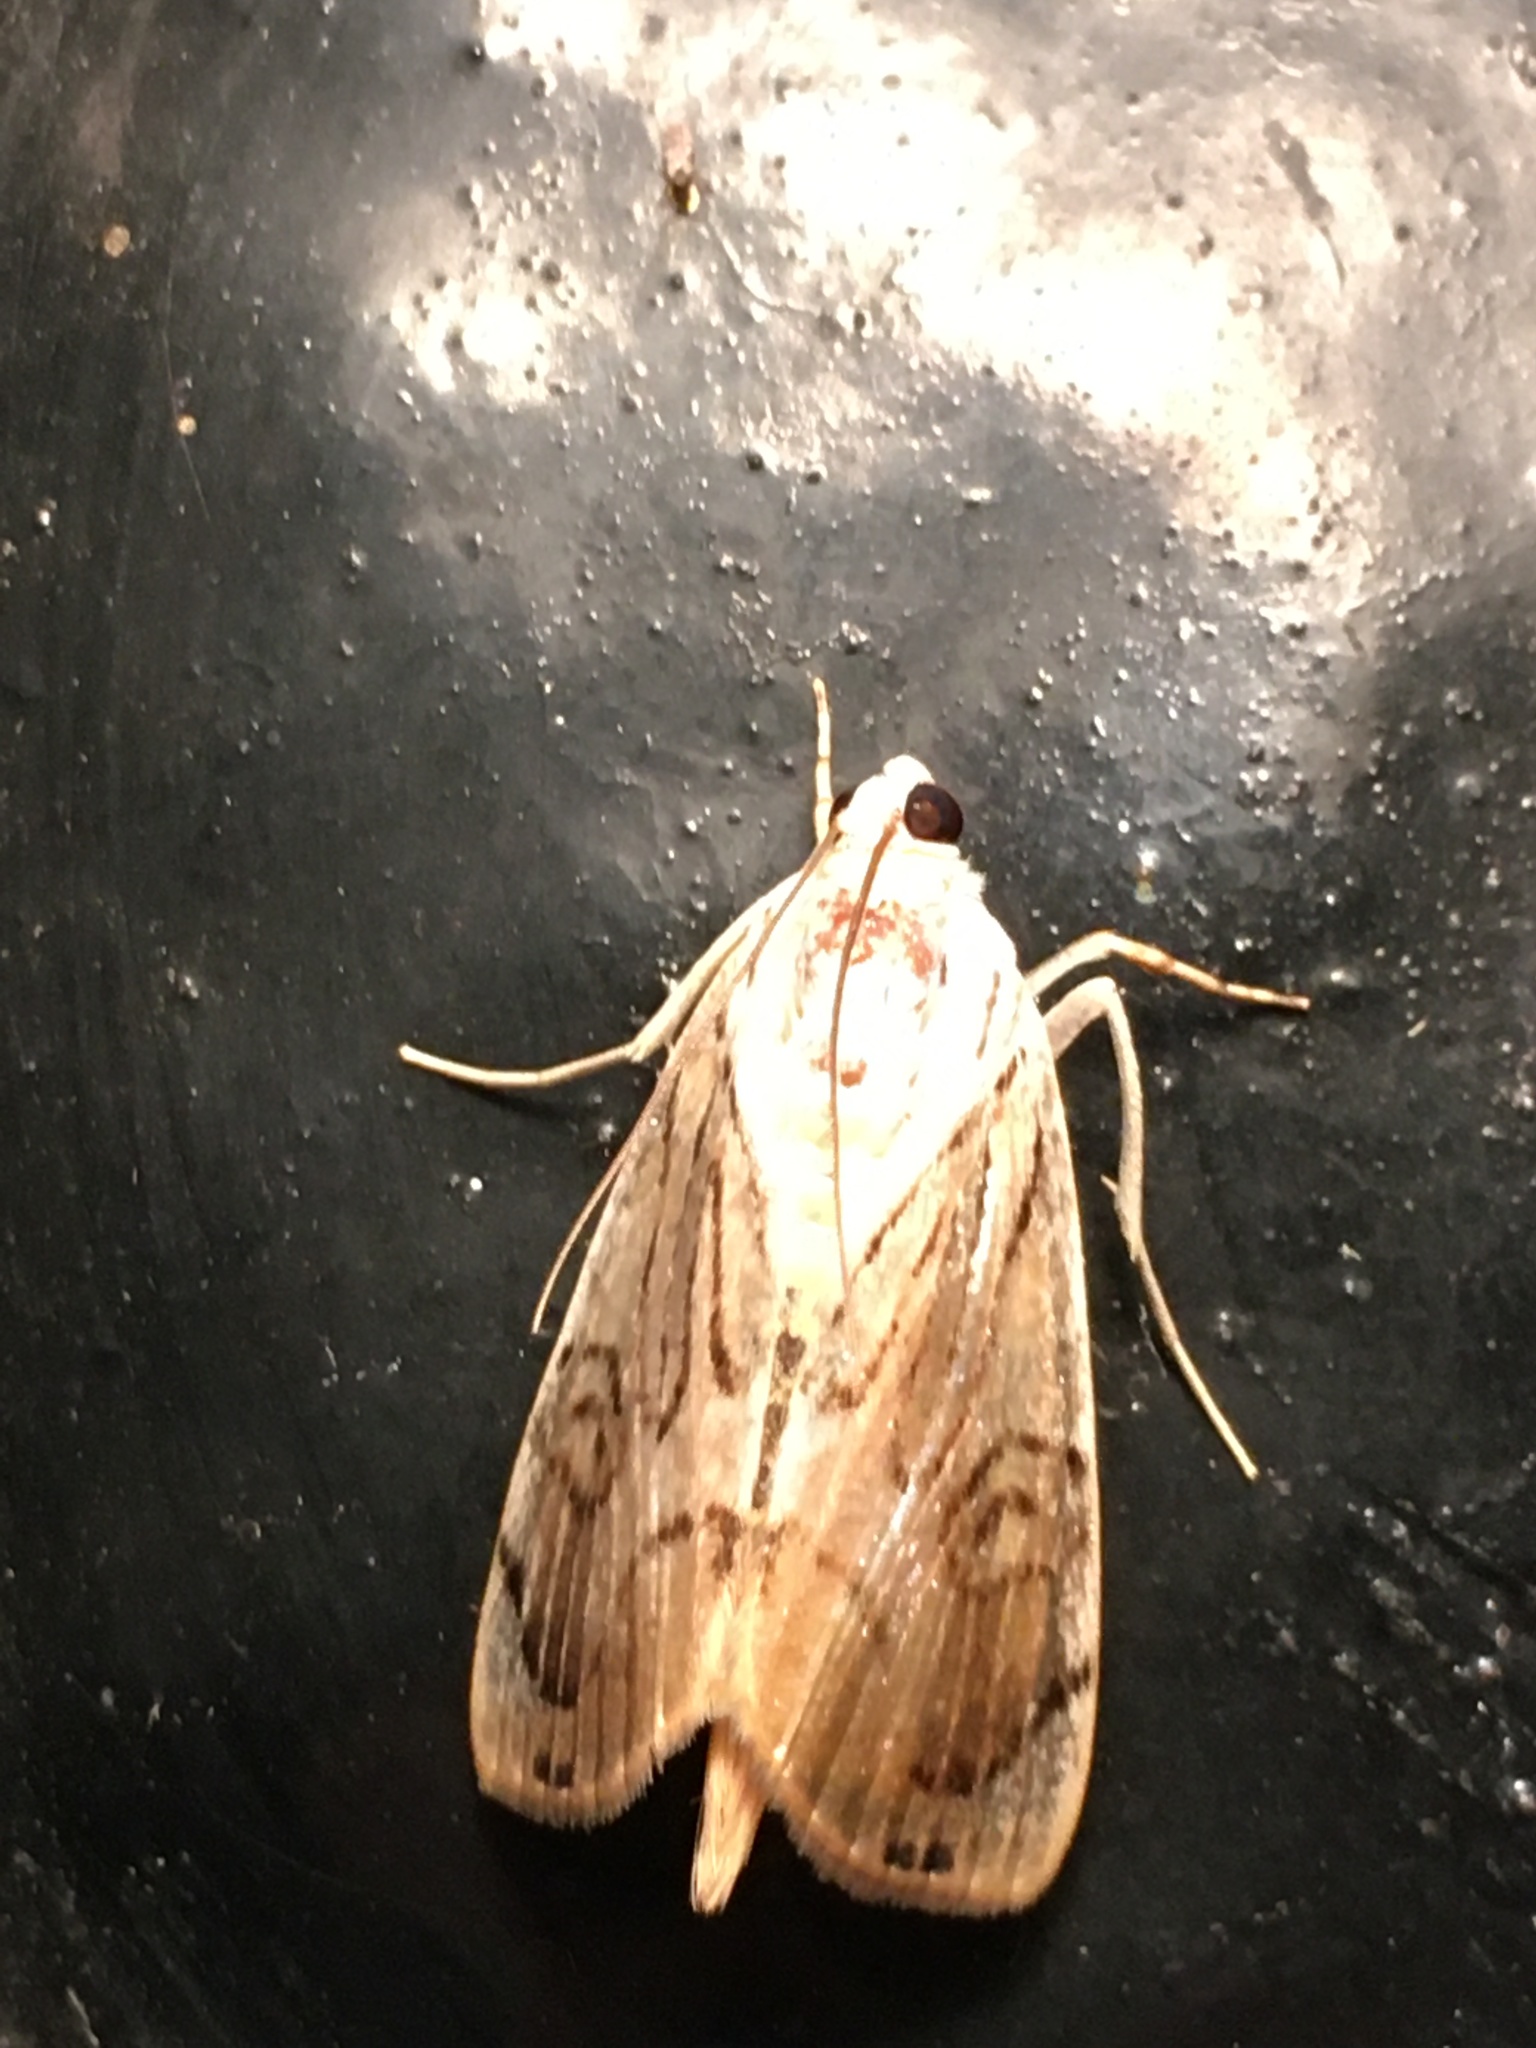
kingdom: Animalia
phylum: Arthropoda
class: Insecta
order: Lepidoptera
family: Crambidae
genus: Dichogama
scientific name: Dichogama redtenbacheri
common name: Carper-leaf webworm moth
